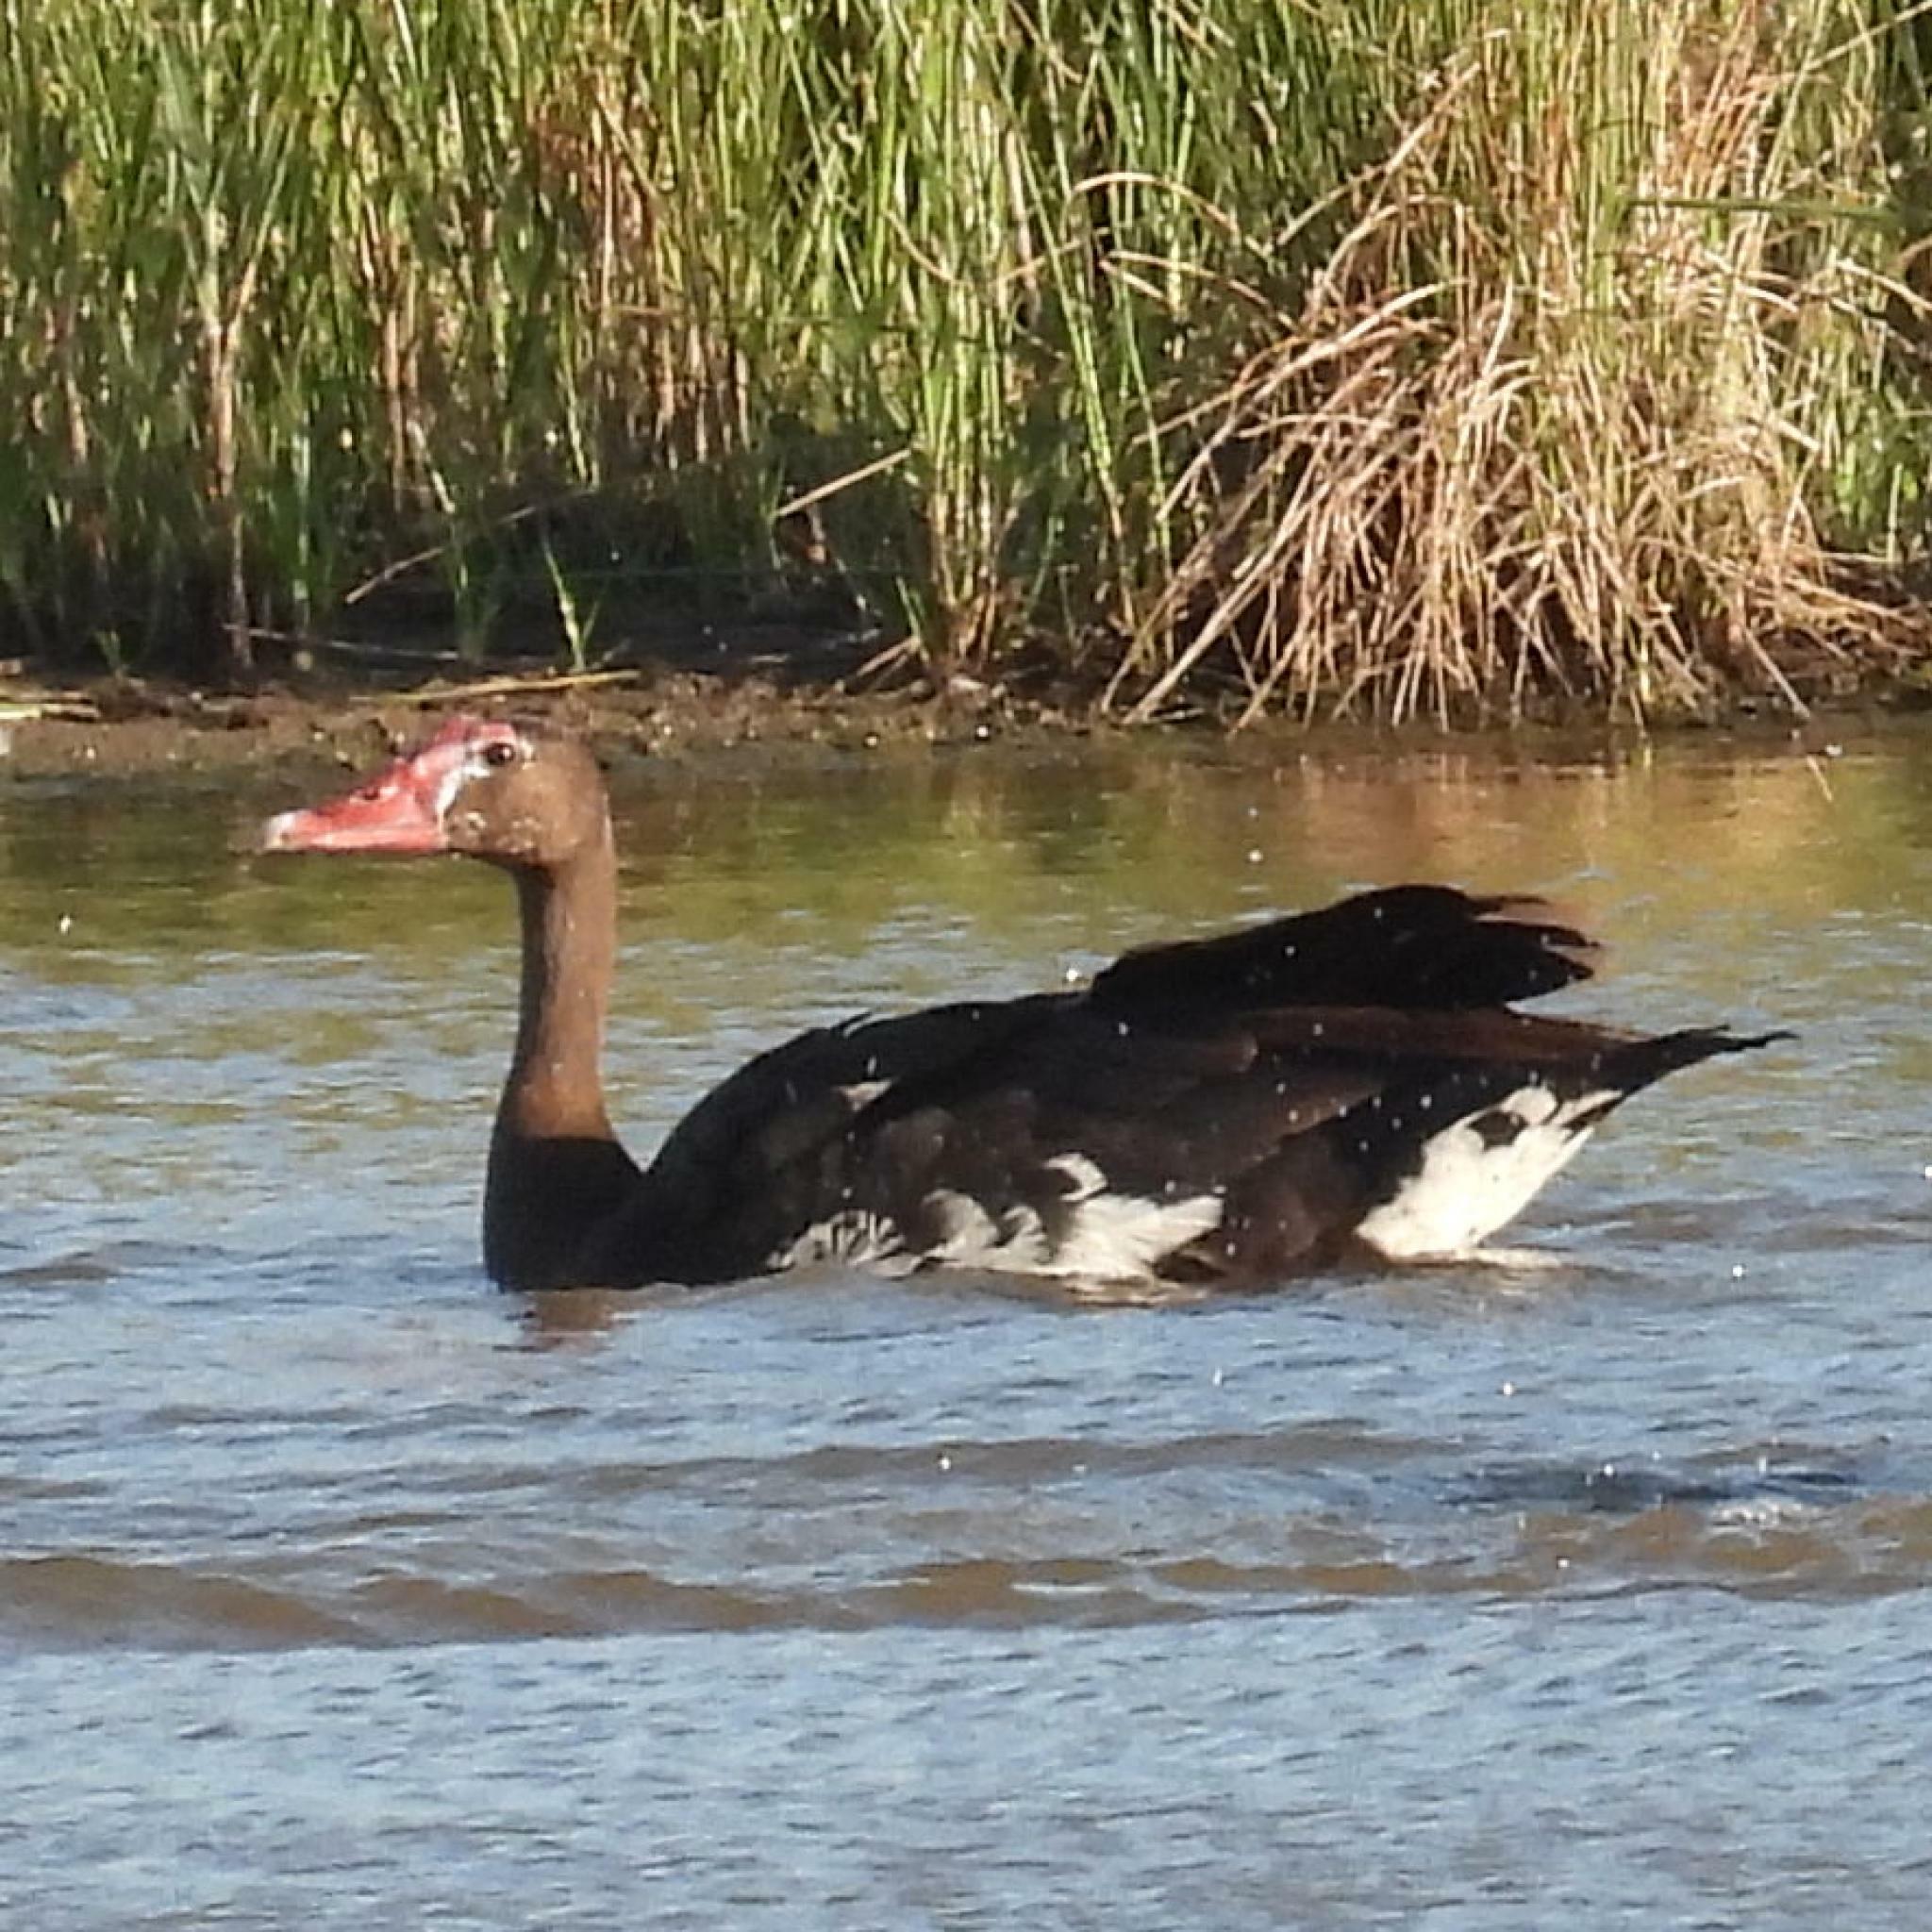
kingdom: Animalia
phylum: Chordata
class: Aves
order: Anseriformes
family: Anatidae
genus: Plectropterus
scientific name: Plectropterus gambensis
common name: Spur-winged goose
